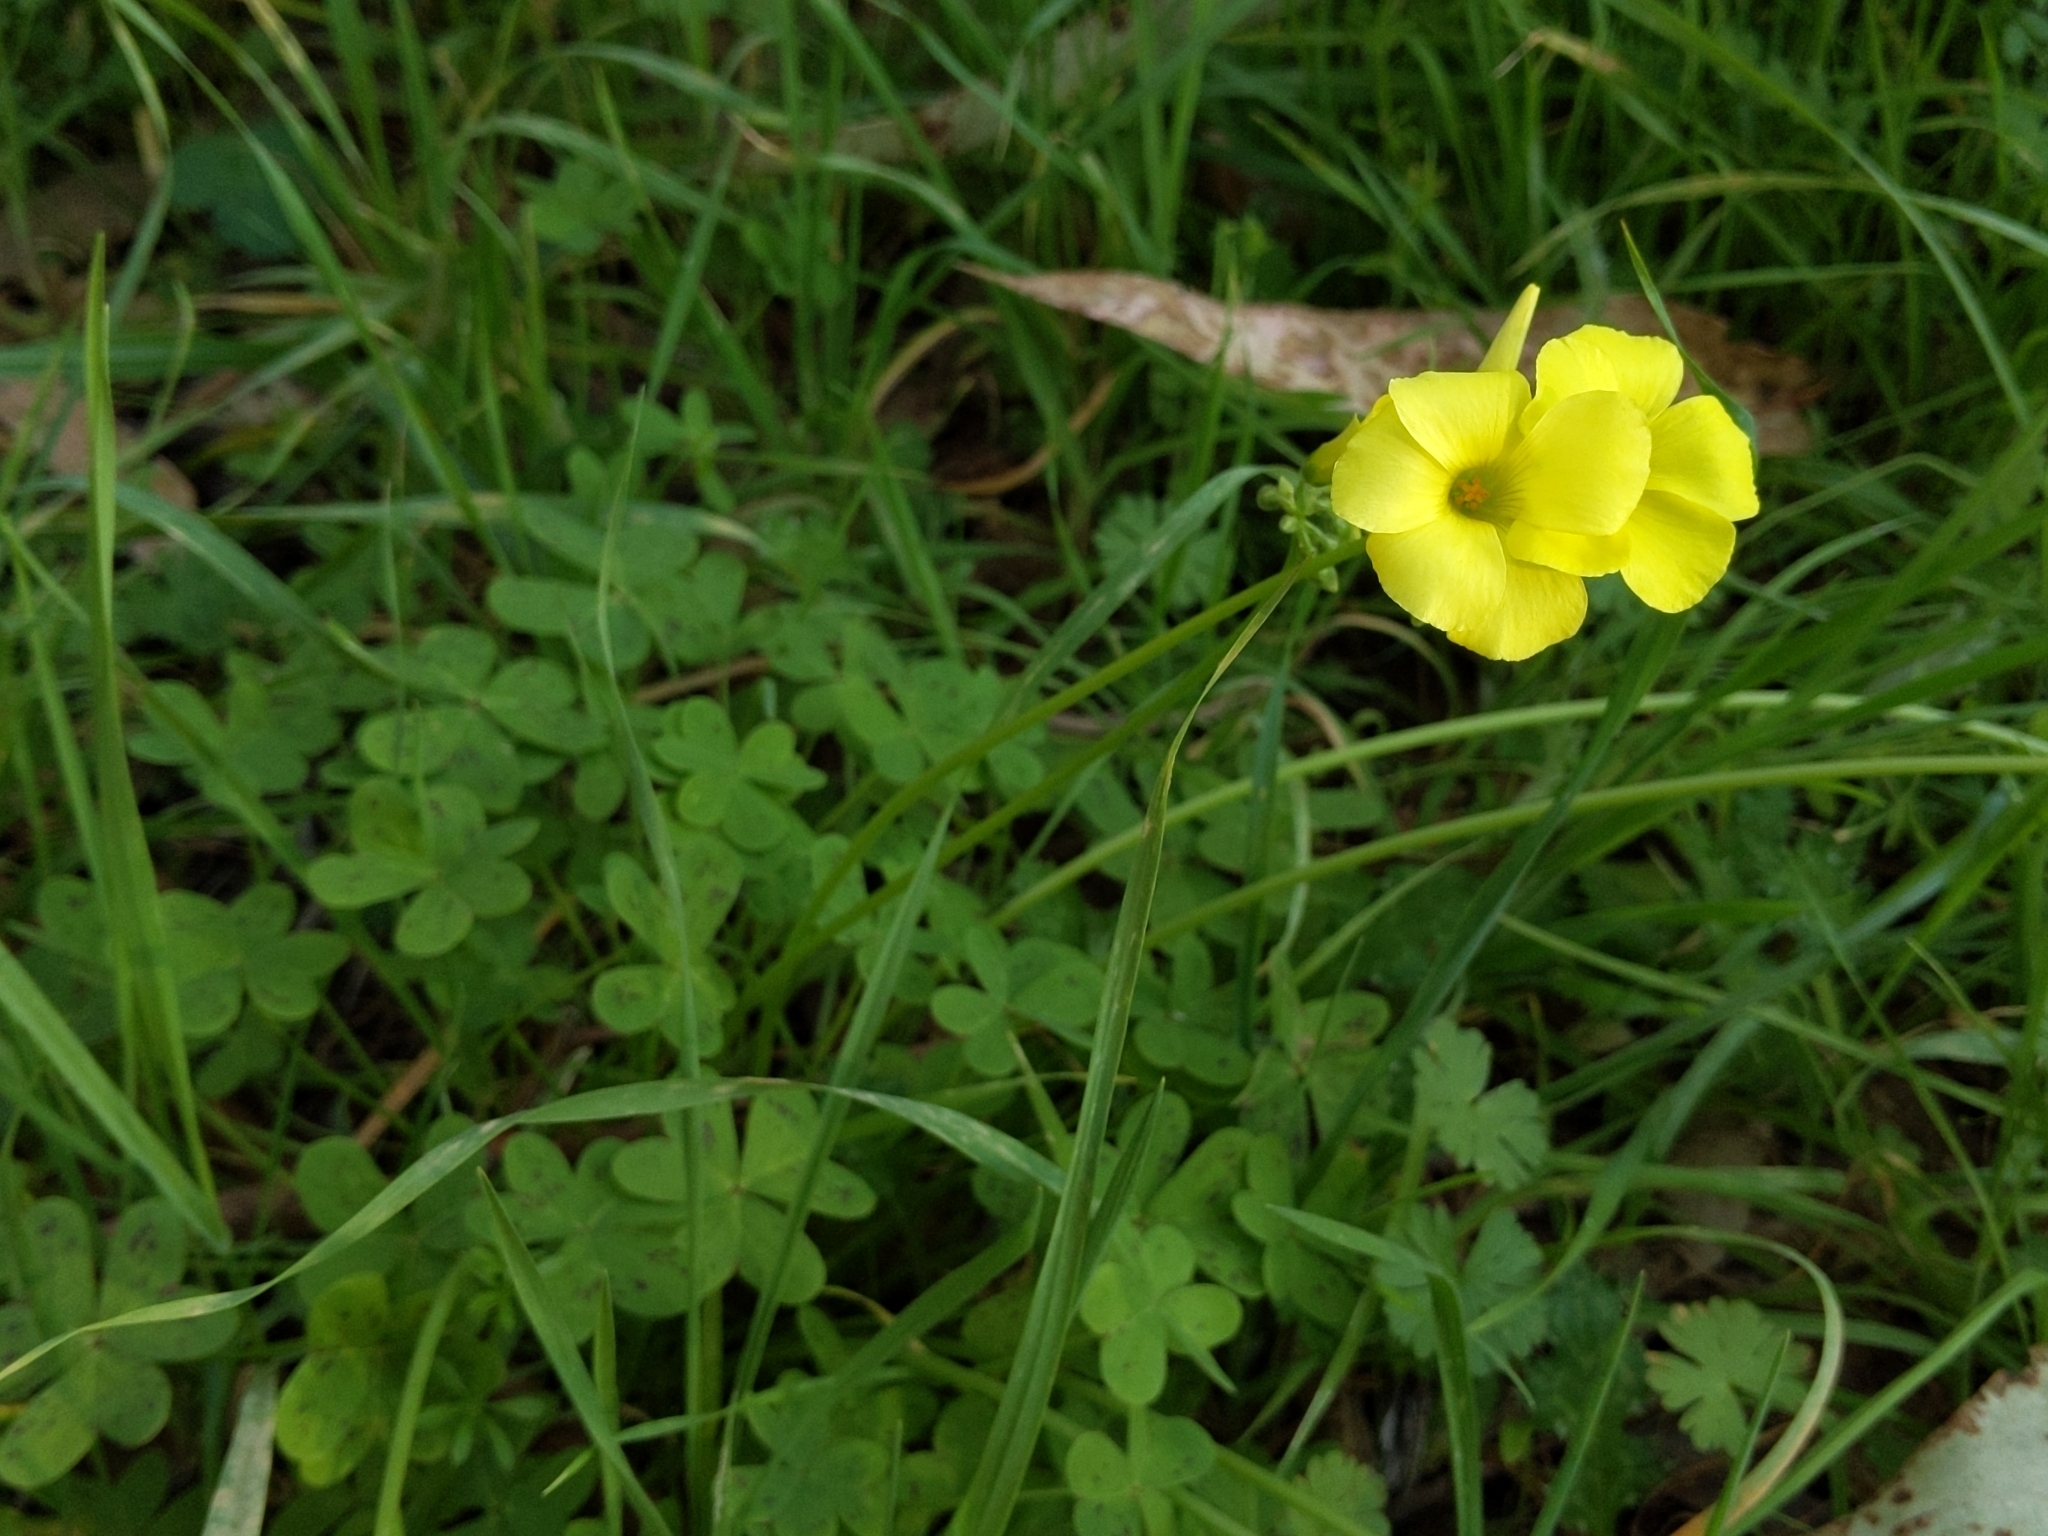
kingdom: Plantae
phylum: Tracheophyta
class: Magnoliopsida
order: Oxalidales
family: Oxalidaceae
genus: Oxalis
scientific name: Oxalis pes-caprae
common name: Bermuda-buttercup
